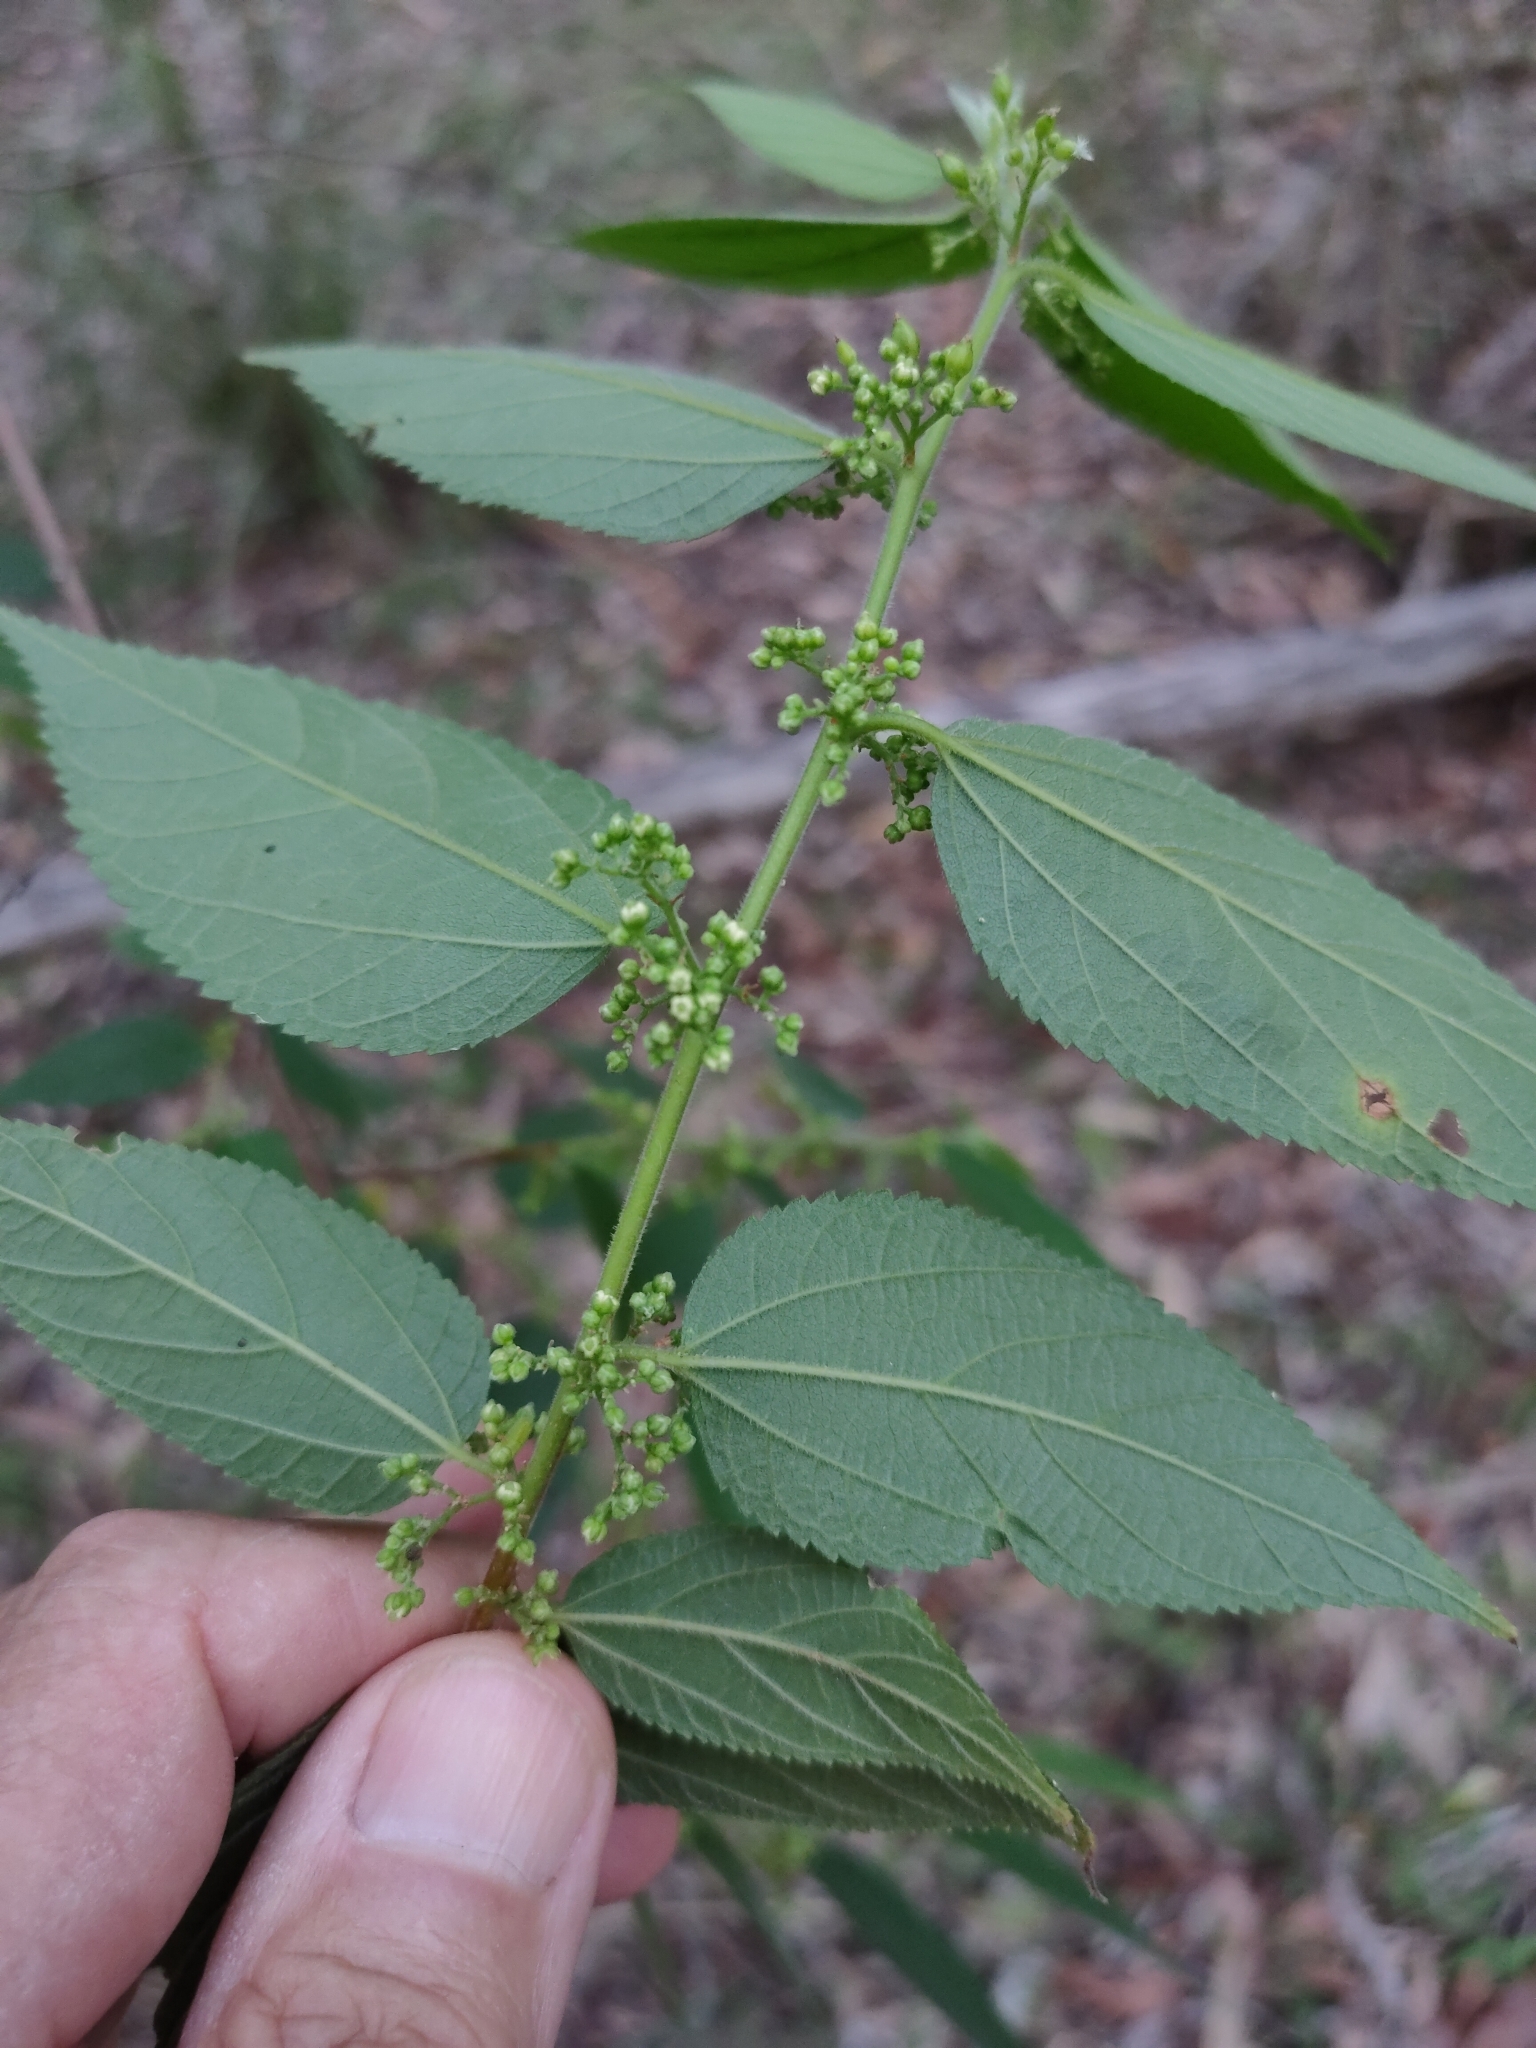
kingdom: Plantae
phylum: Tracheophyta
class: Magnoliopsida
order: Rosales
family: Cannabaceae
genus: Trema
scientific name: Trema tomentosum
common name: Peach-leaf-poisonbush
